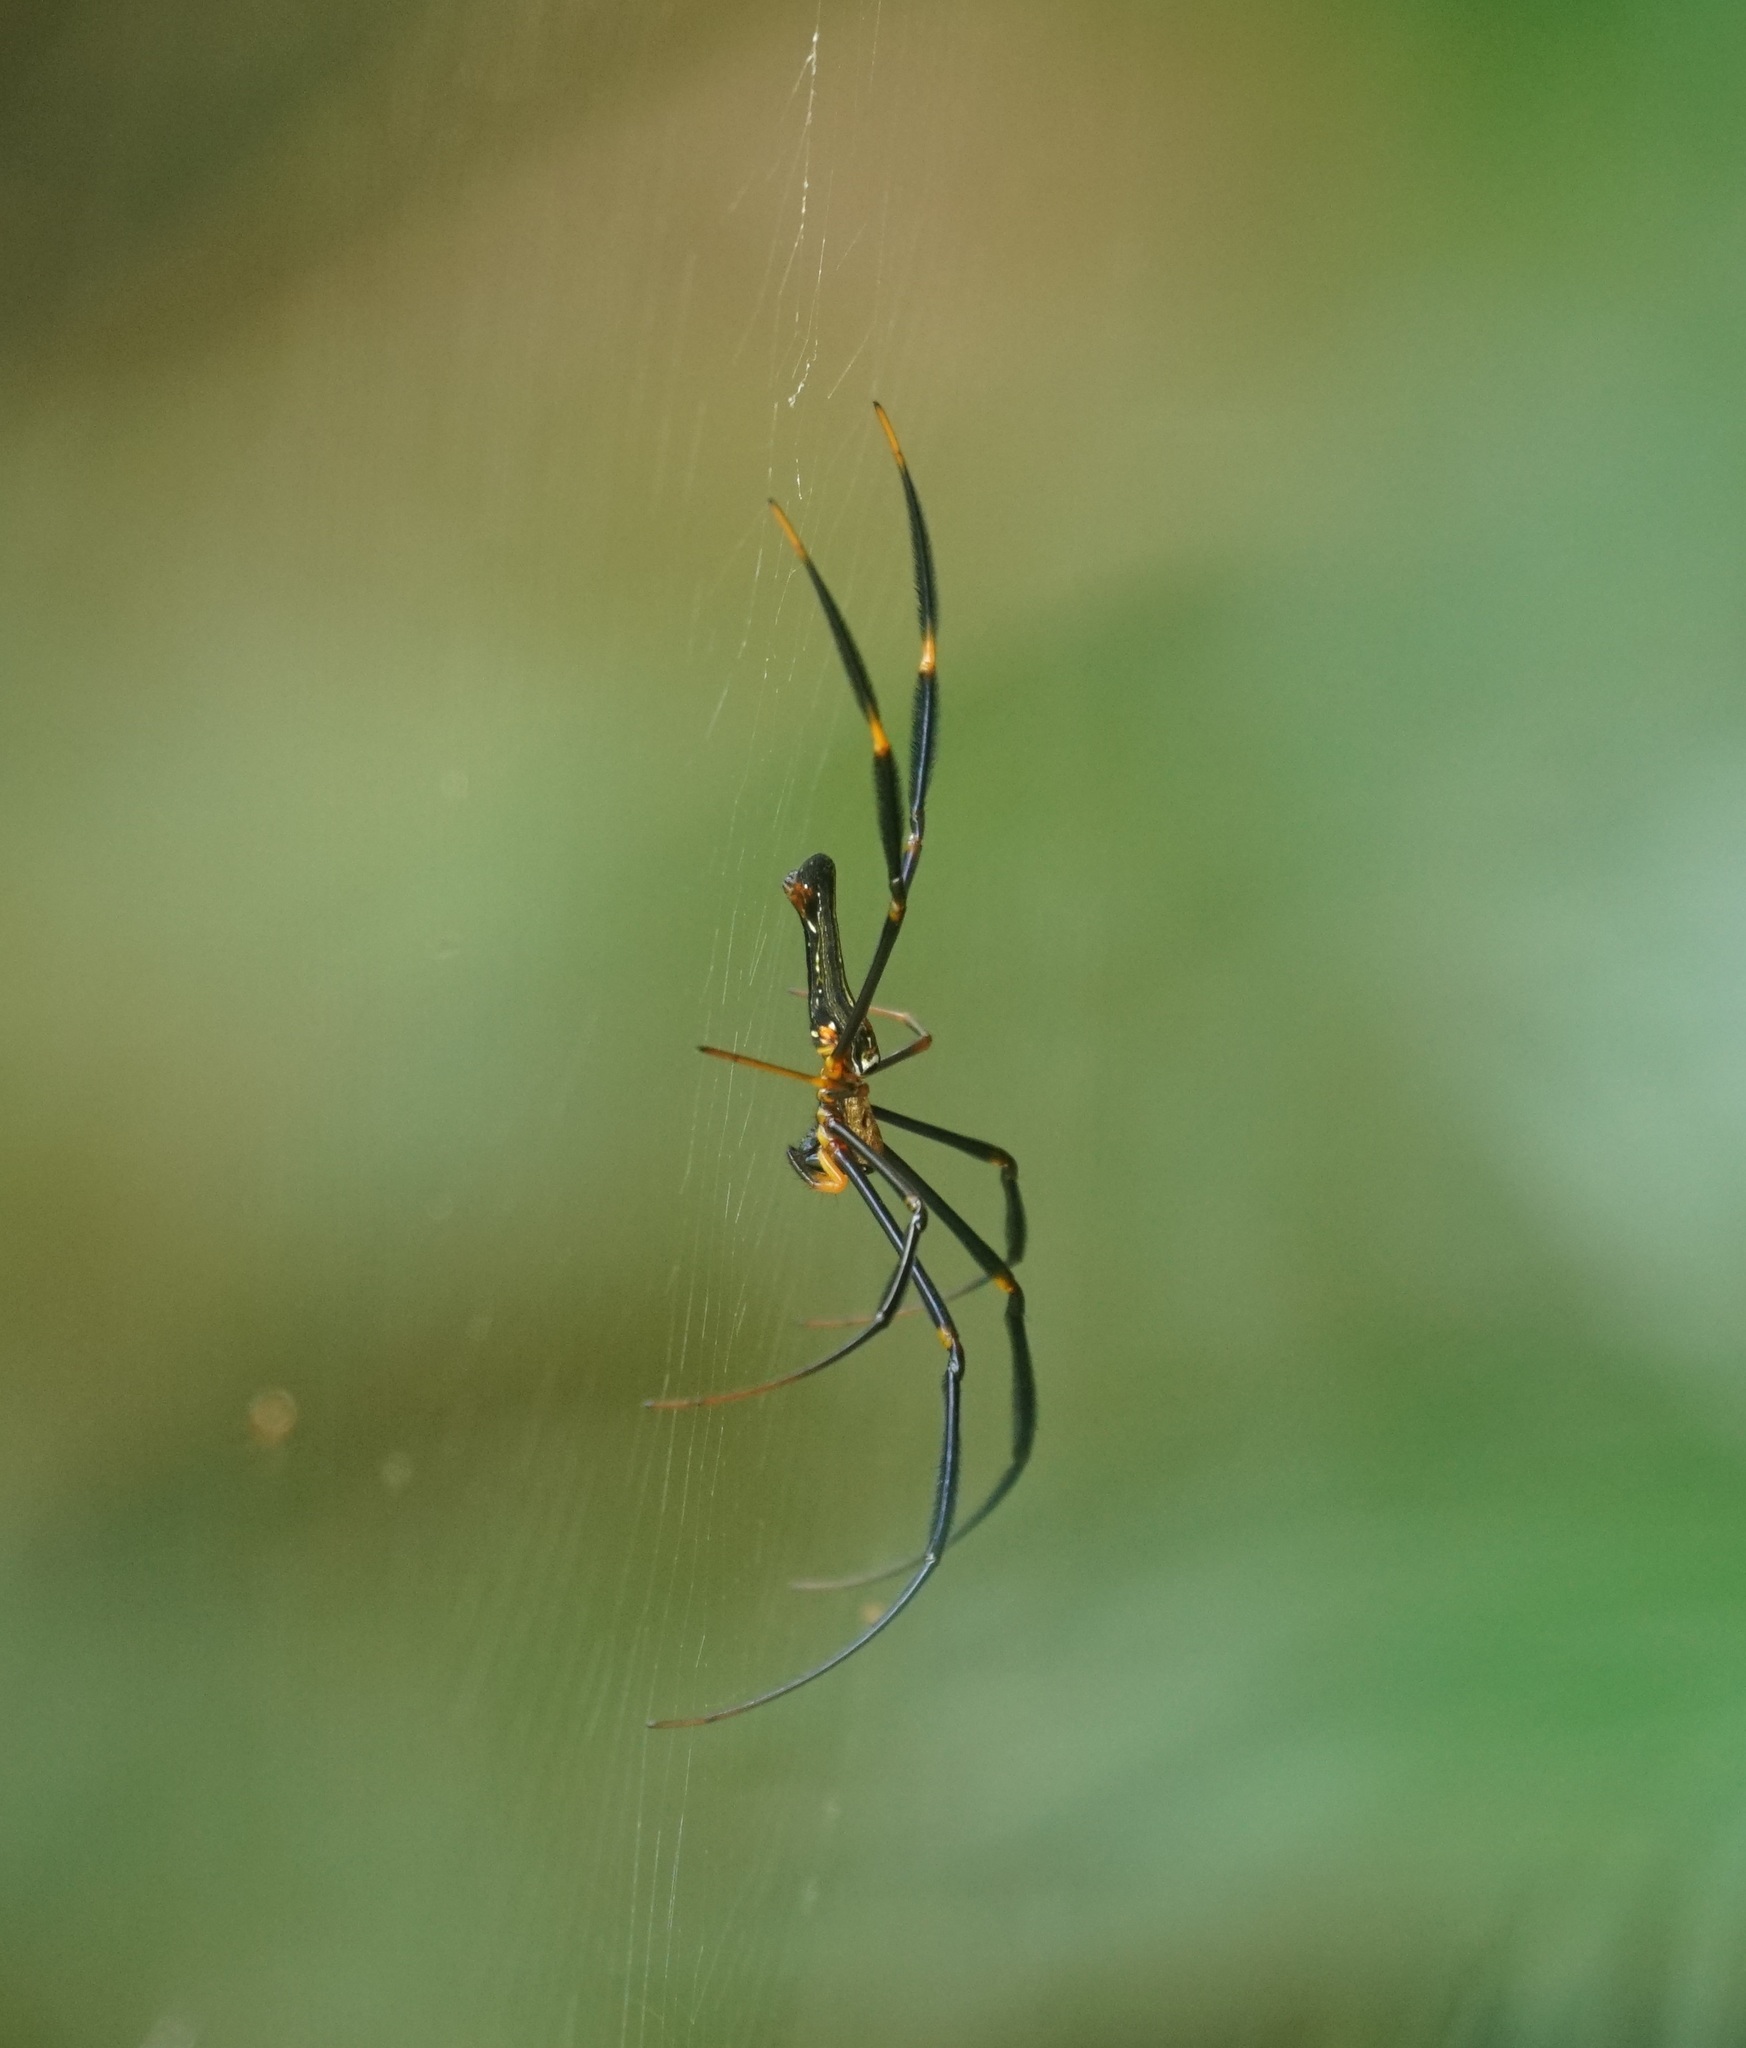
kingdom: Animalia
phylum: Arthropoda
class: Arachnida
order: Araneae
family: Araneidae
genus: Nephila
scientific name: Nephila pilipes
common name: Giant golden orb weaver
